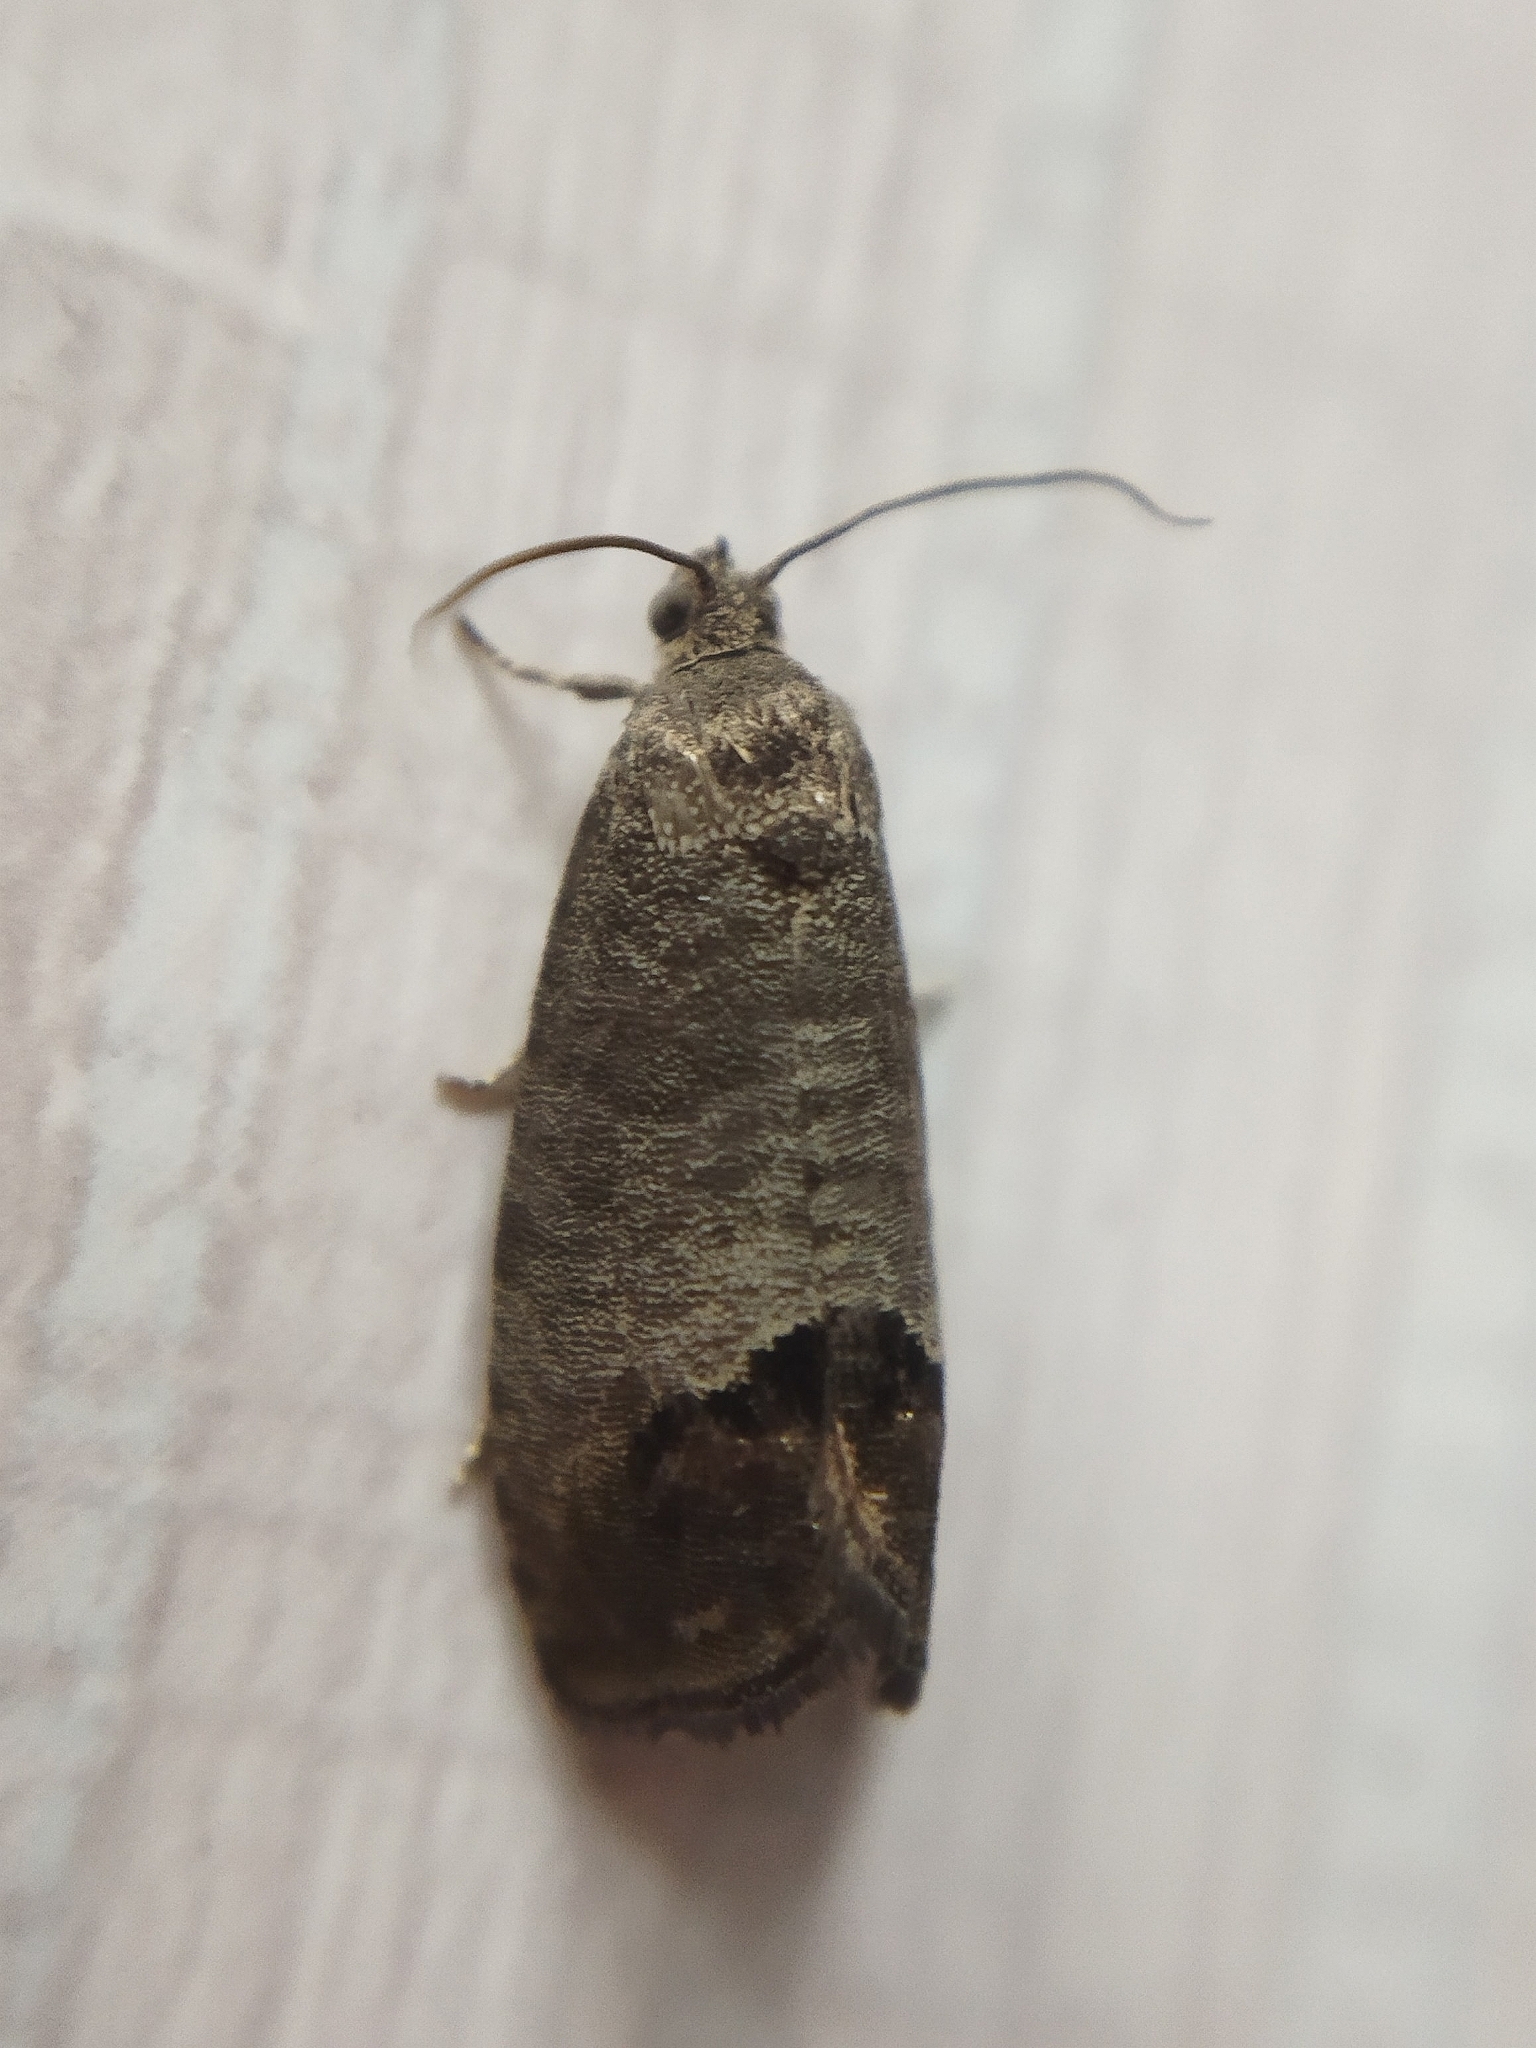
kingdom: Animalia
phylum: Arthropoda
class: Insecta
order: Lepidoptera
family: Tortricidae
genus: Cydia
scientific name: Cydia pomonella
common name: Codling moth
